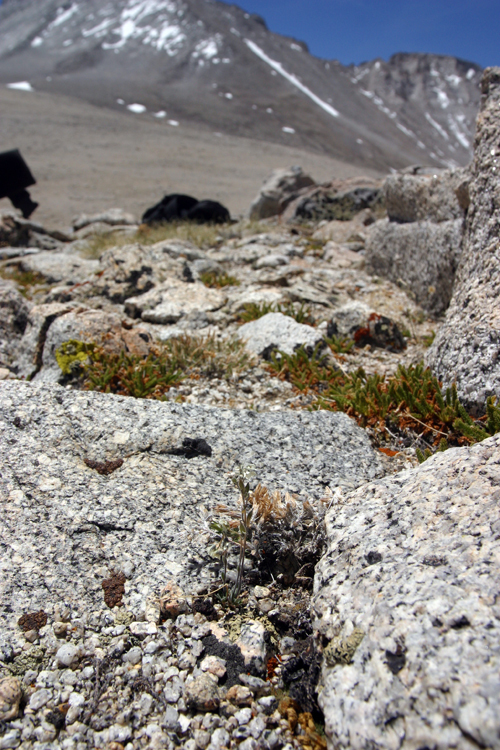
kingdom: Plantae
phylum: Tracheophyta
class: Magnoliopsida
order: Brassicales
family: Brassicaceae
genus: Draba
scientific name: Draba breweri
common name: Cushion draba
